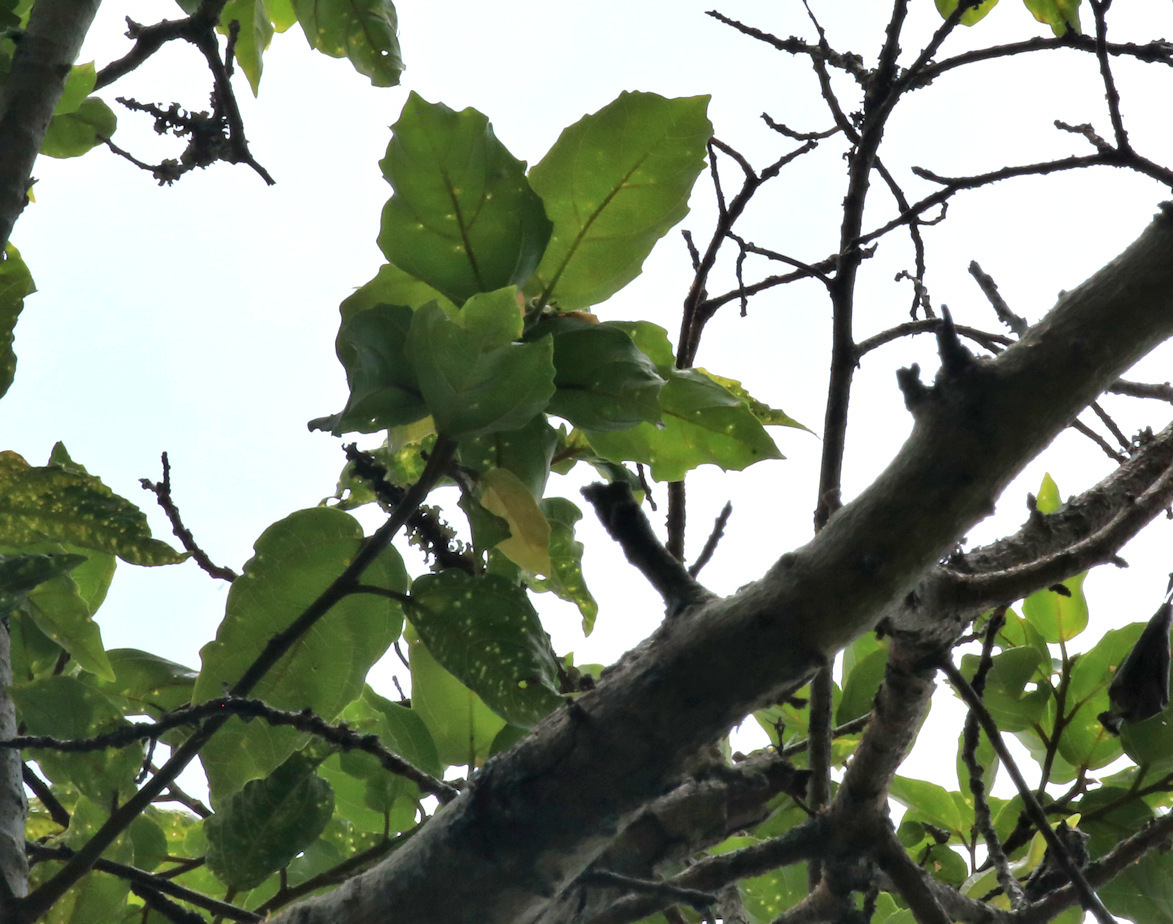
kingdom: Plantae
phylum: Tracheophyta
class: Magnoliopsida
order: Rosales
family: Moraceae
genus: Ficus
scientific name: Ficus sur
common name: Cape fig
